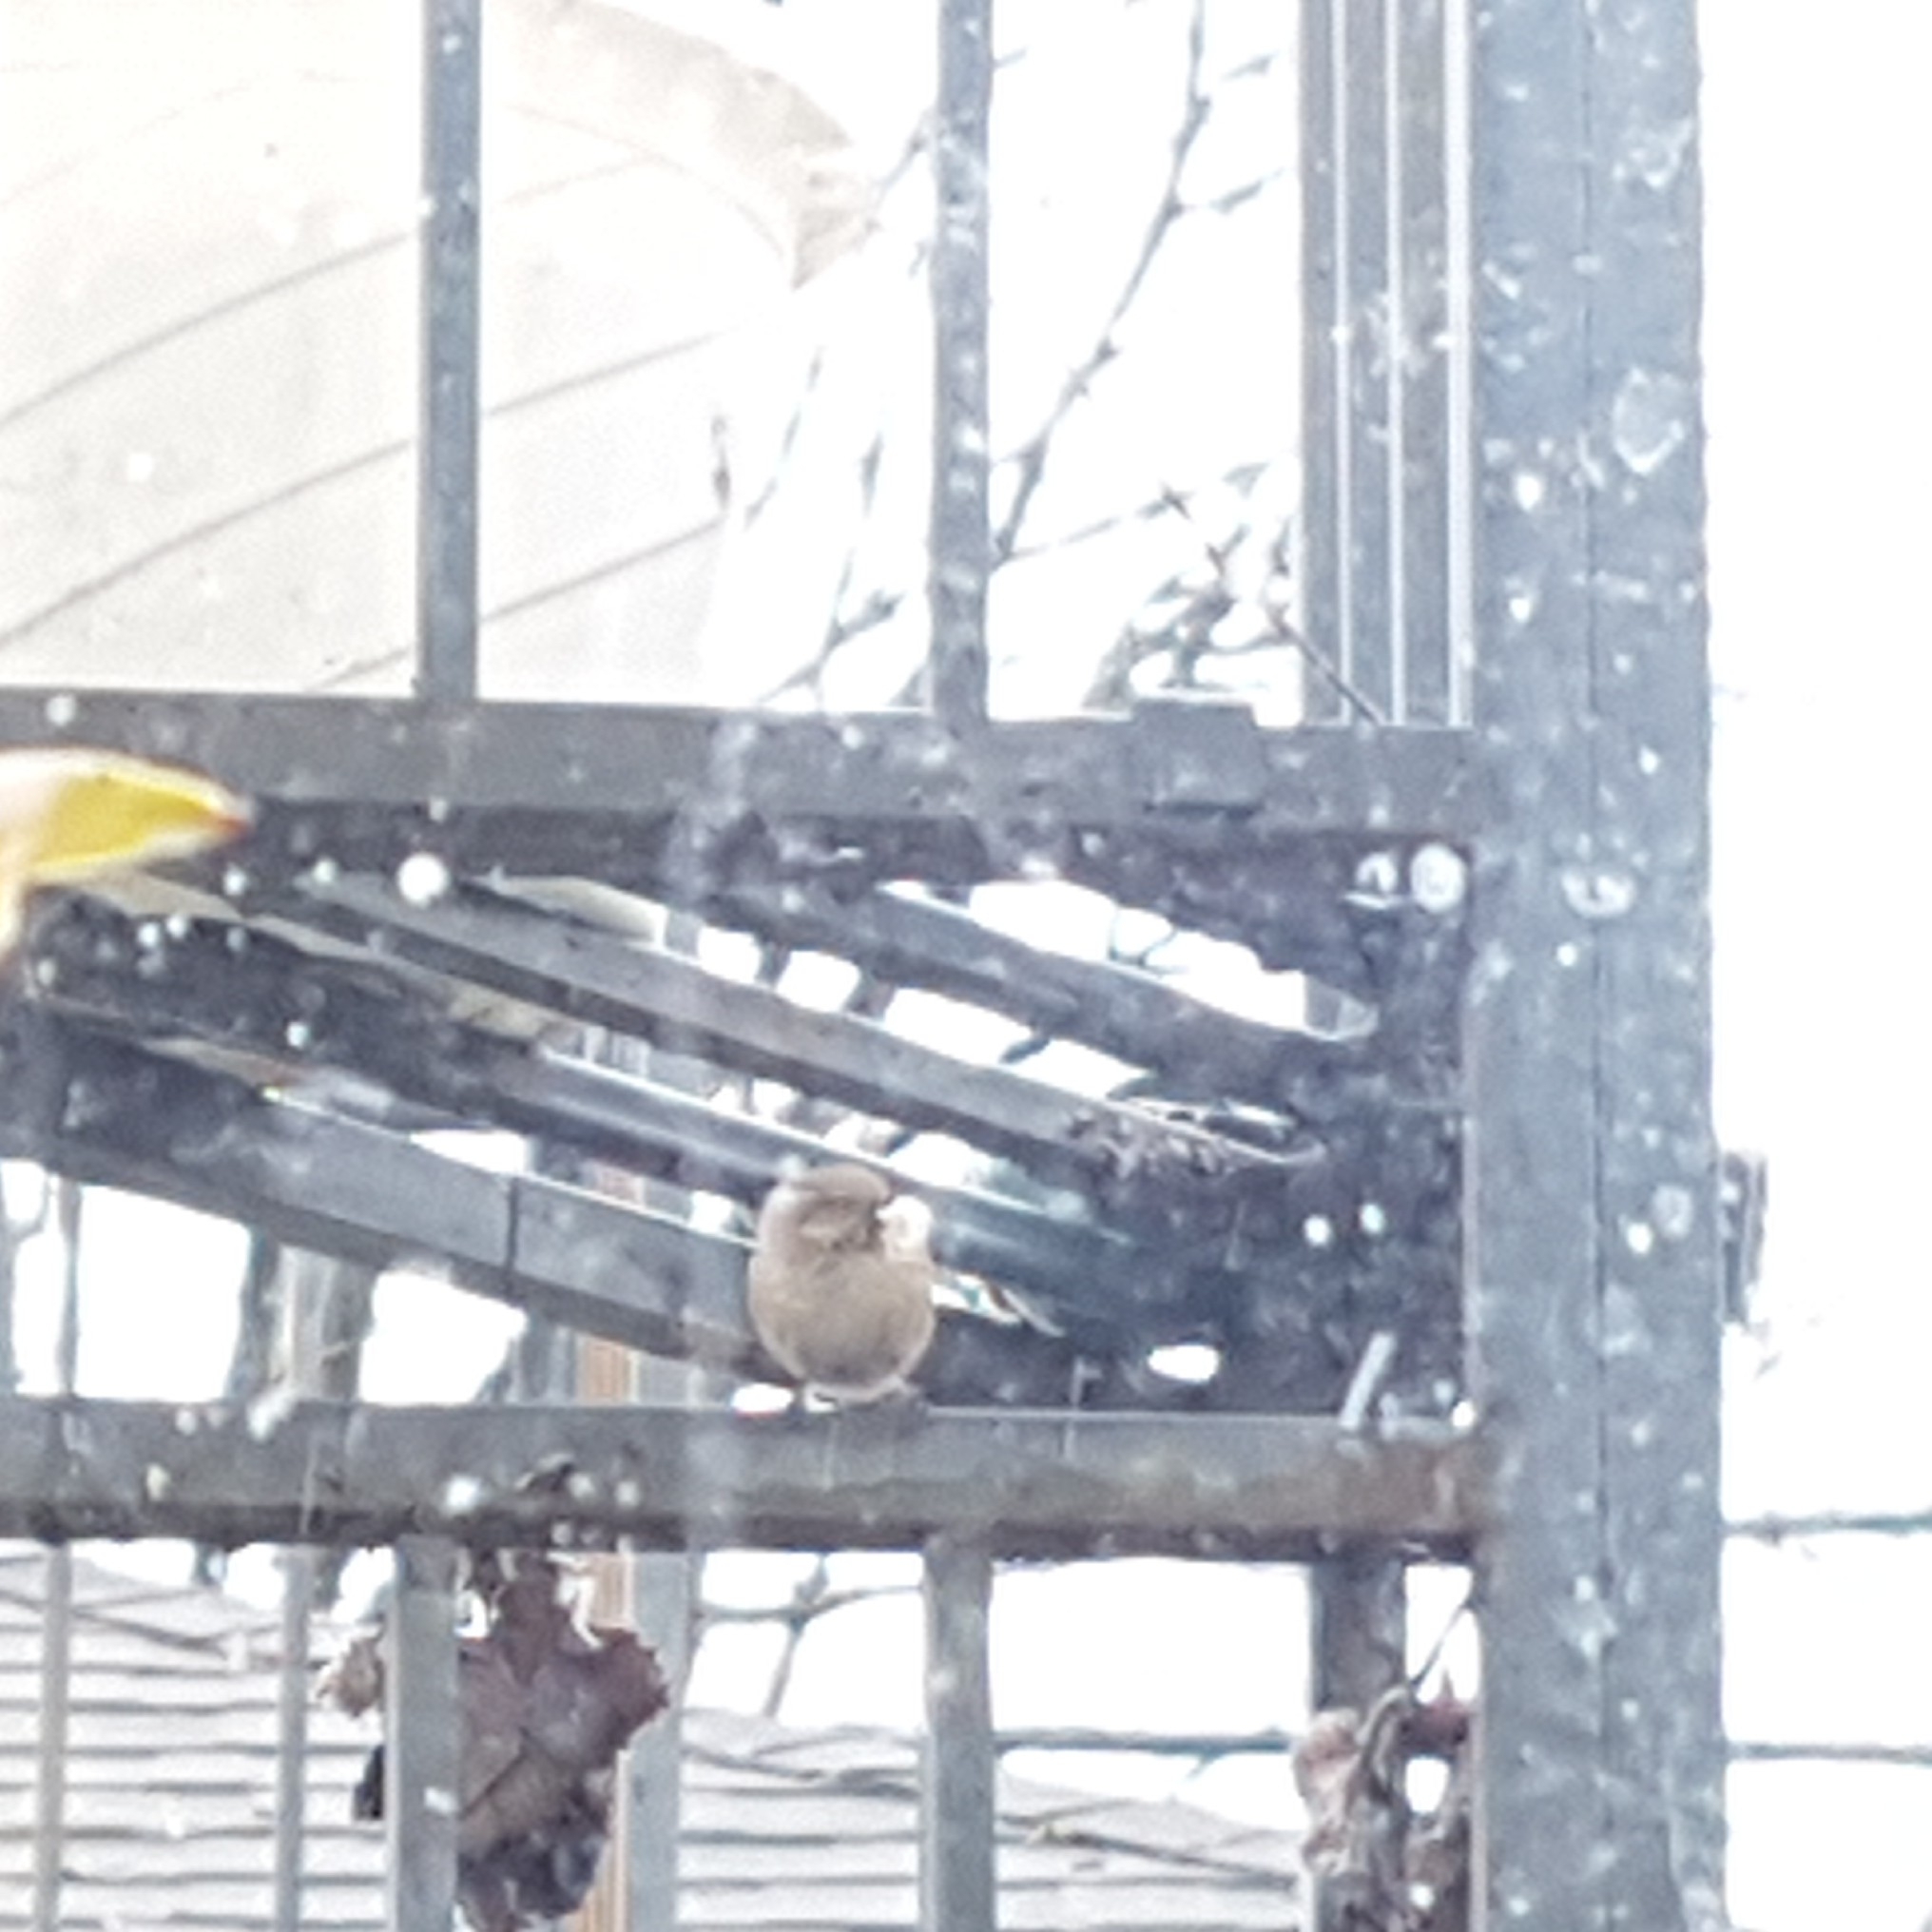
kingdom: Animalia
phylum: Chordata
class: Aves
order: Passeriformes
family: Aegithalidae
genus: Psaltriparus
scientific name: Psaltriparus minimus
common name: American bushtit
